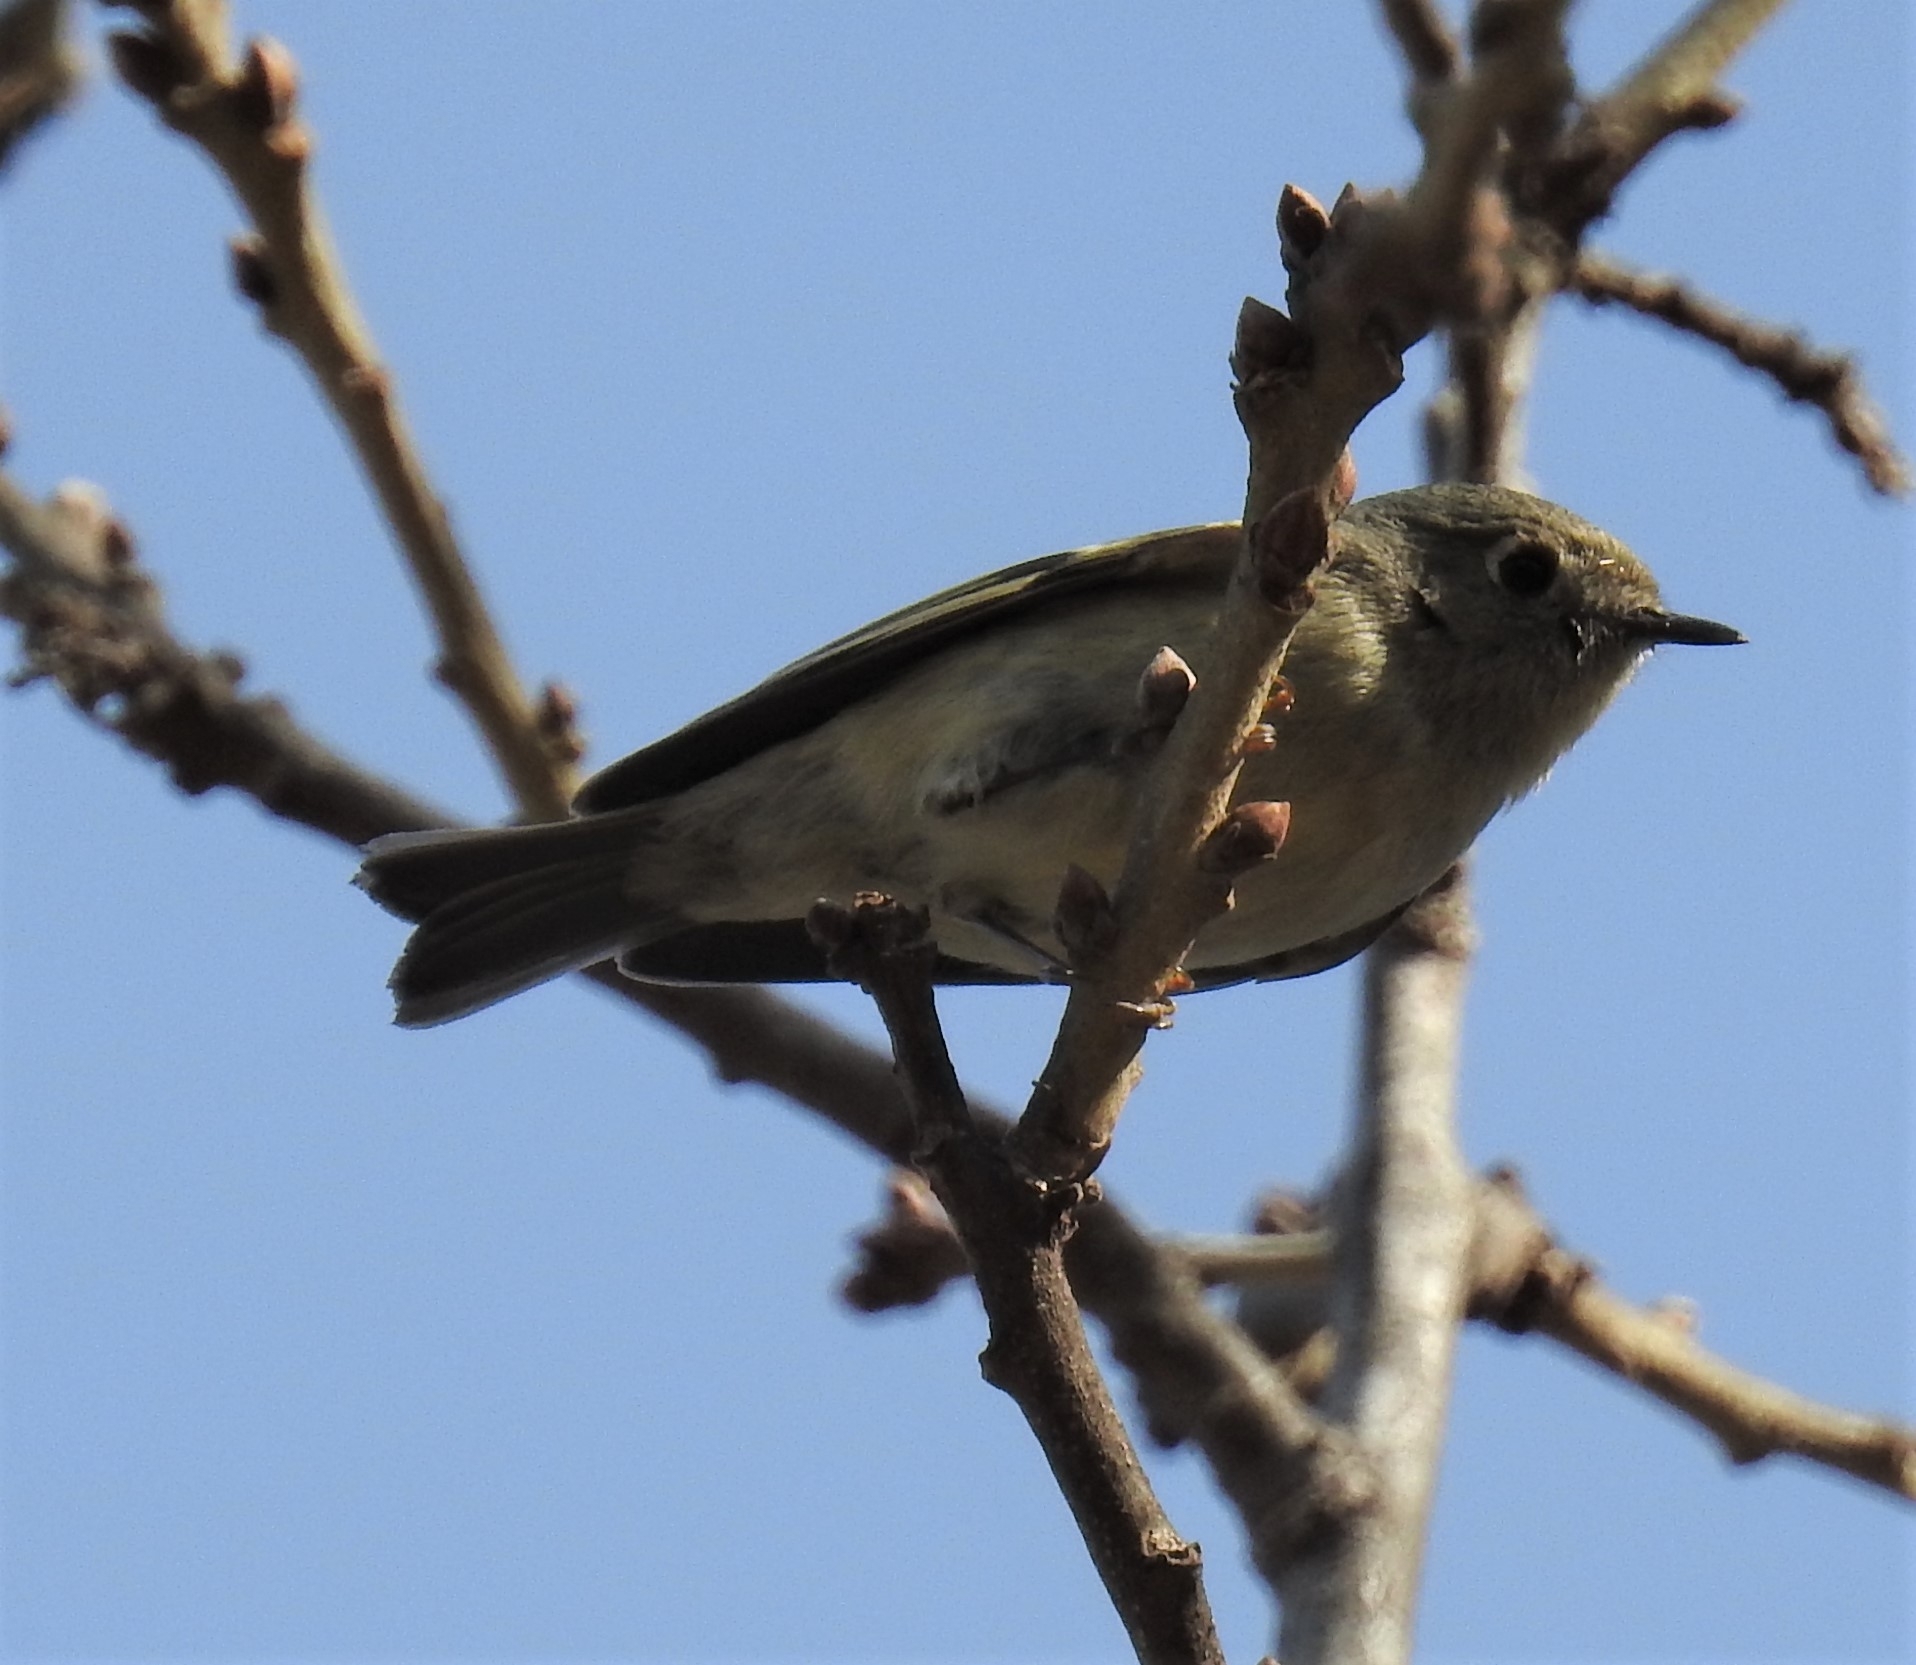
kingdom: Animalia
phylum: Chordata
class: Aves
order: Passeriformes
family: Regulidae
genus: Regulus
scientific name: Regulus calendula
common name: Ruby-crowned kinglet
